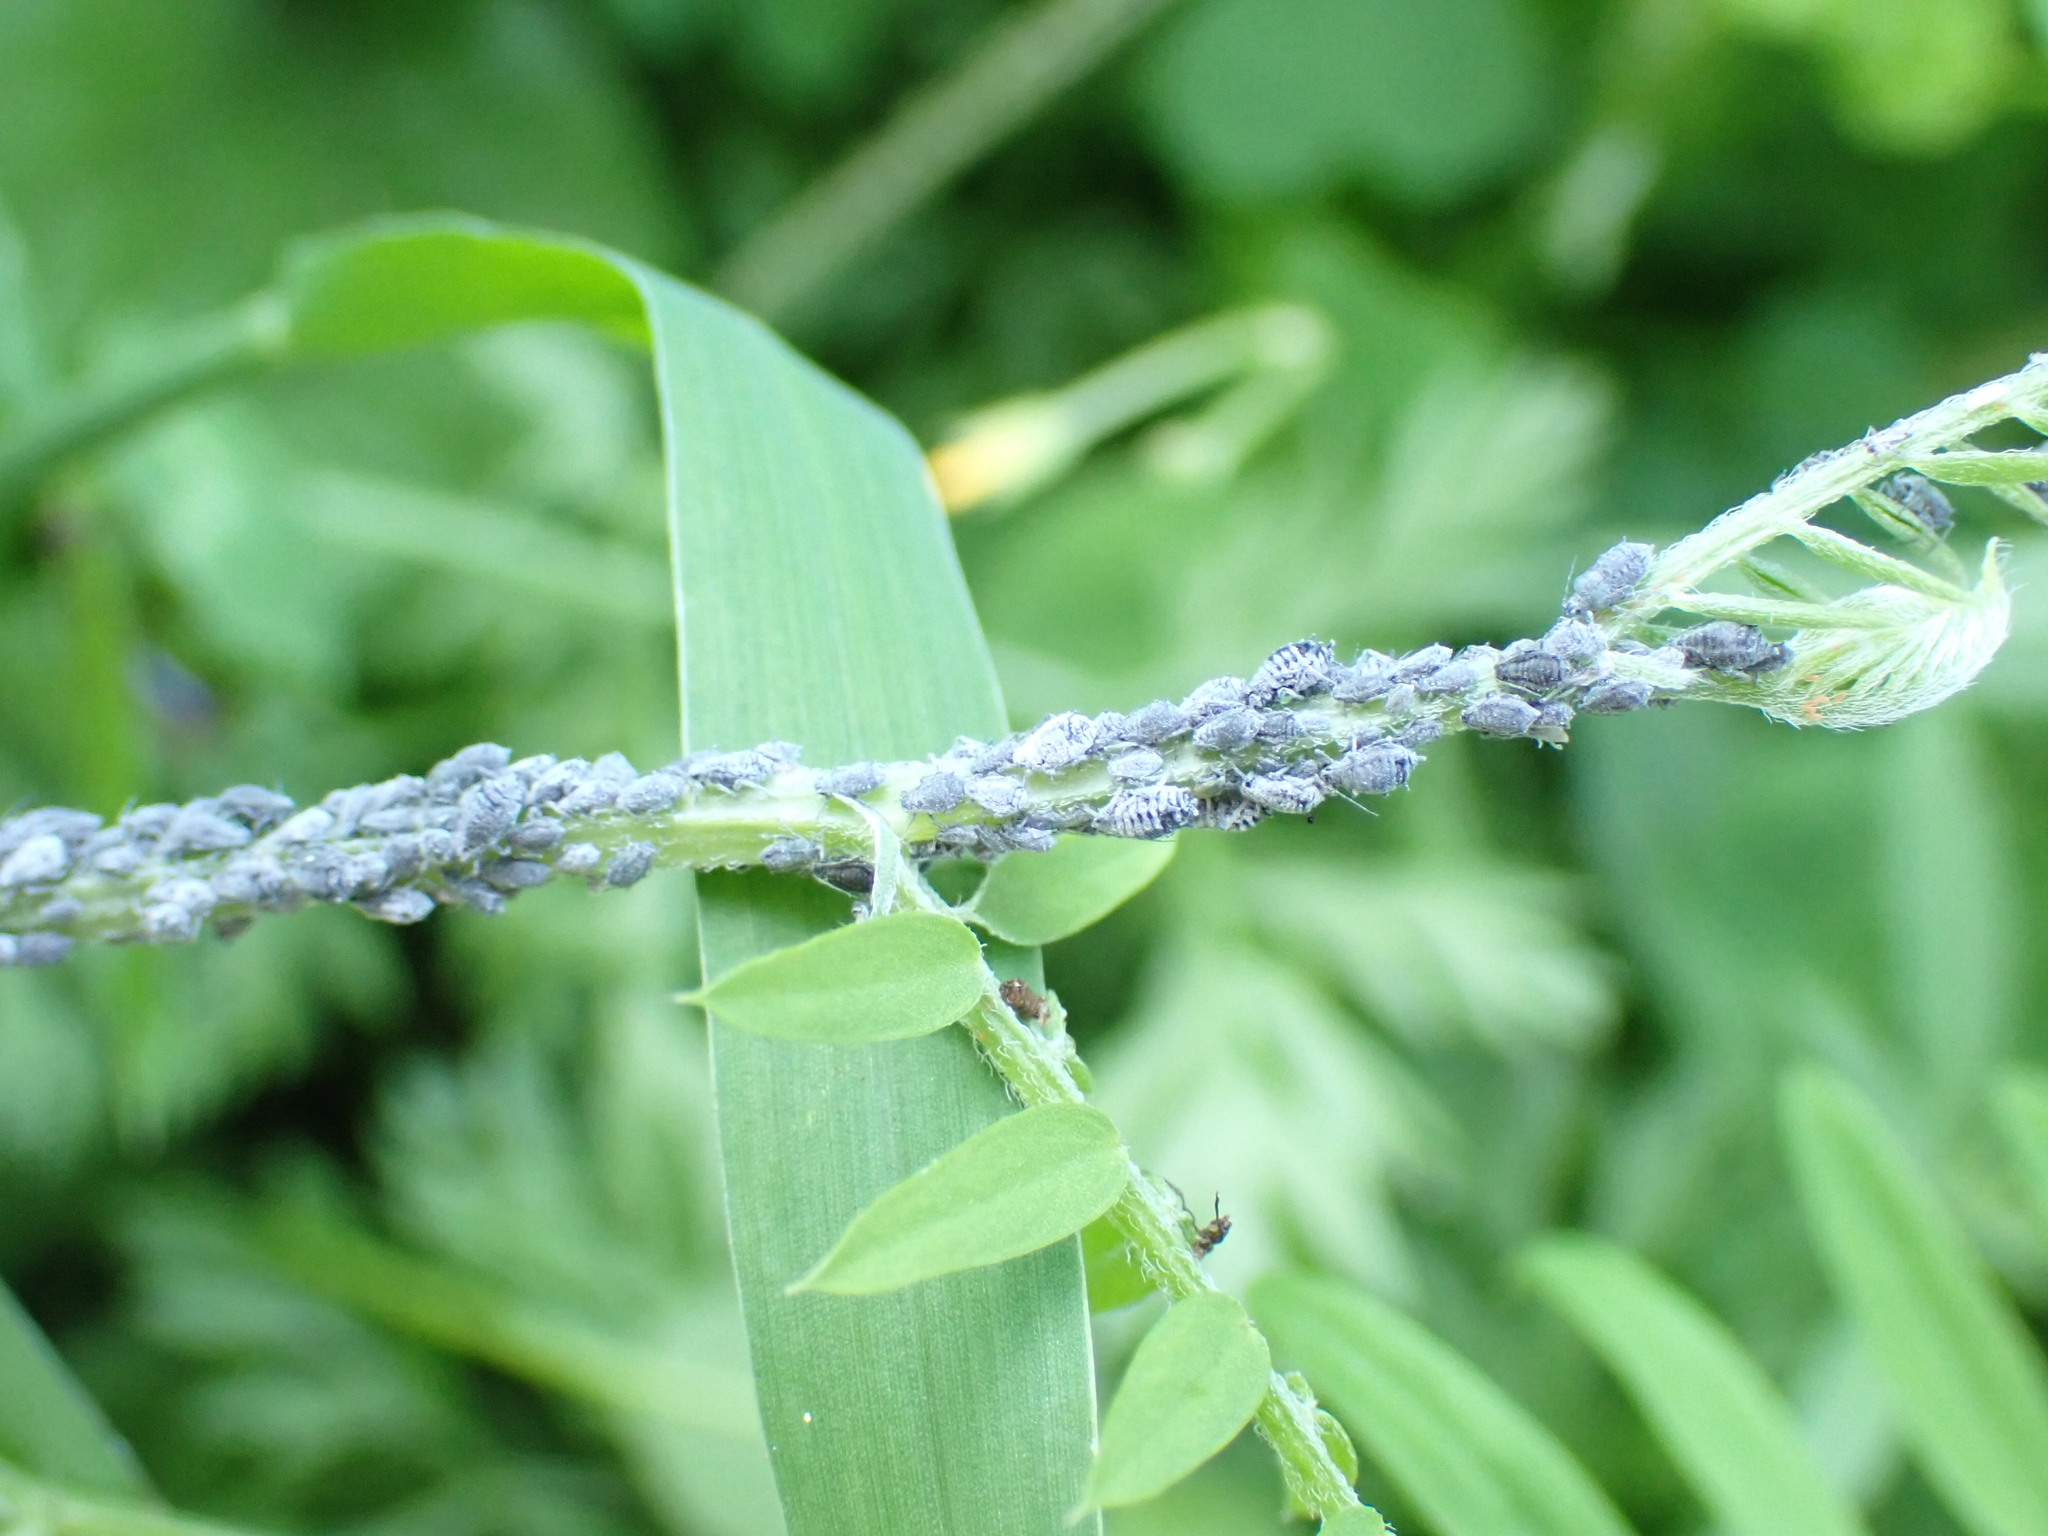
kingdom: Animalia
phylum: Arthropoda
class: Insecta
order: Hemiptera
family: Aphididae
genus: Aphis
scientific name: Aphis craccae
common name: Aphid
